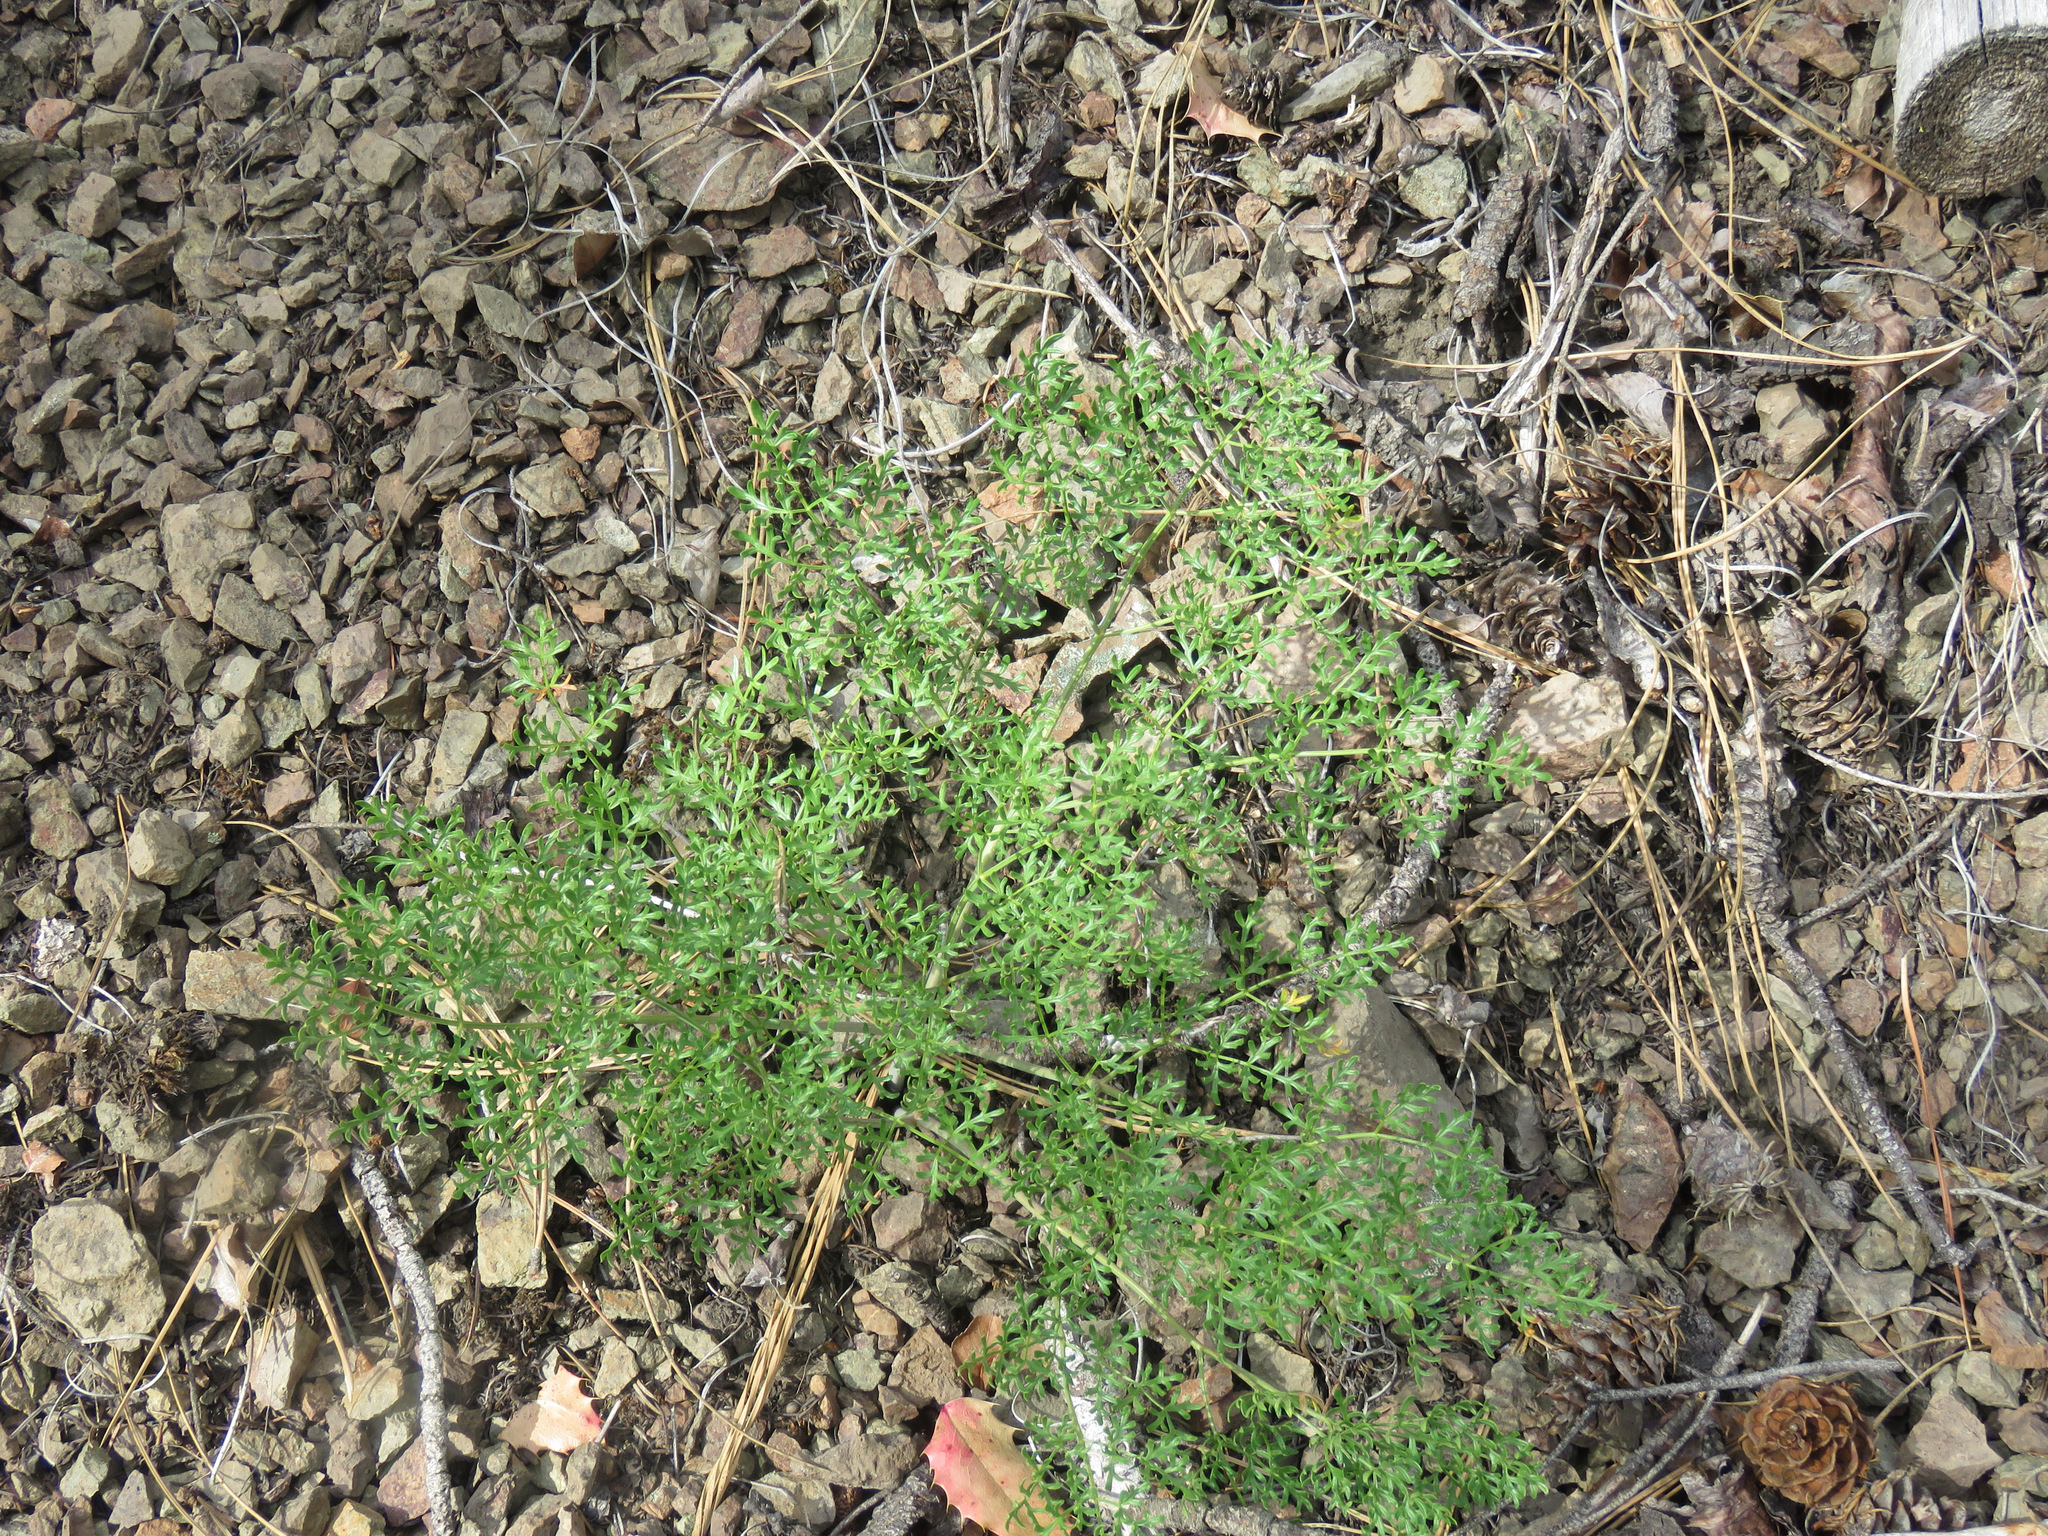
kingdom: Plantae
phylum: Tracheophyta
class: Magnoliopsida
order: Apiales
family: Apiaceae
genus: Lomatium
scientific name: Lomatium multifidum
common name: Carrot-leaved biscuitroot
